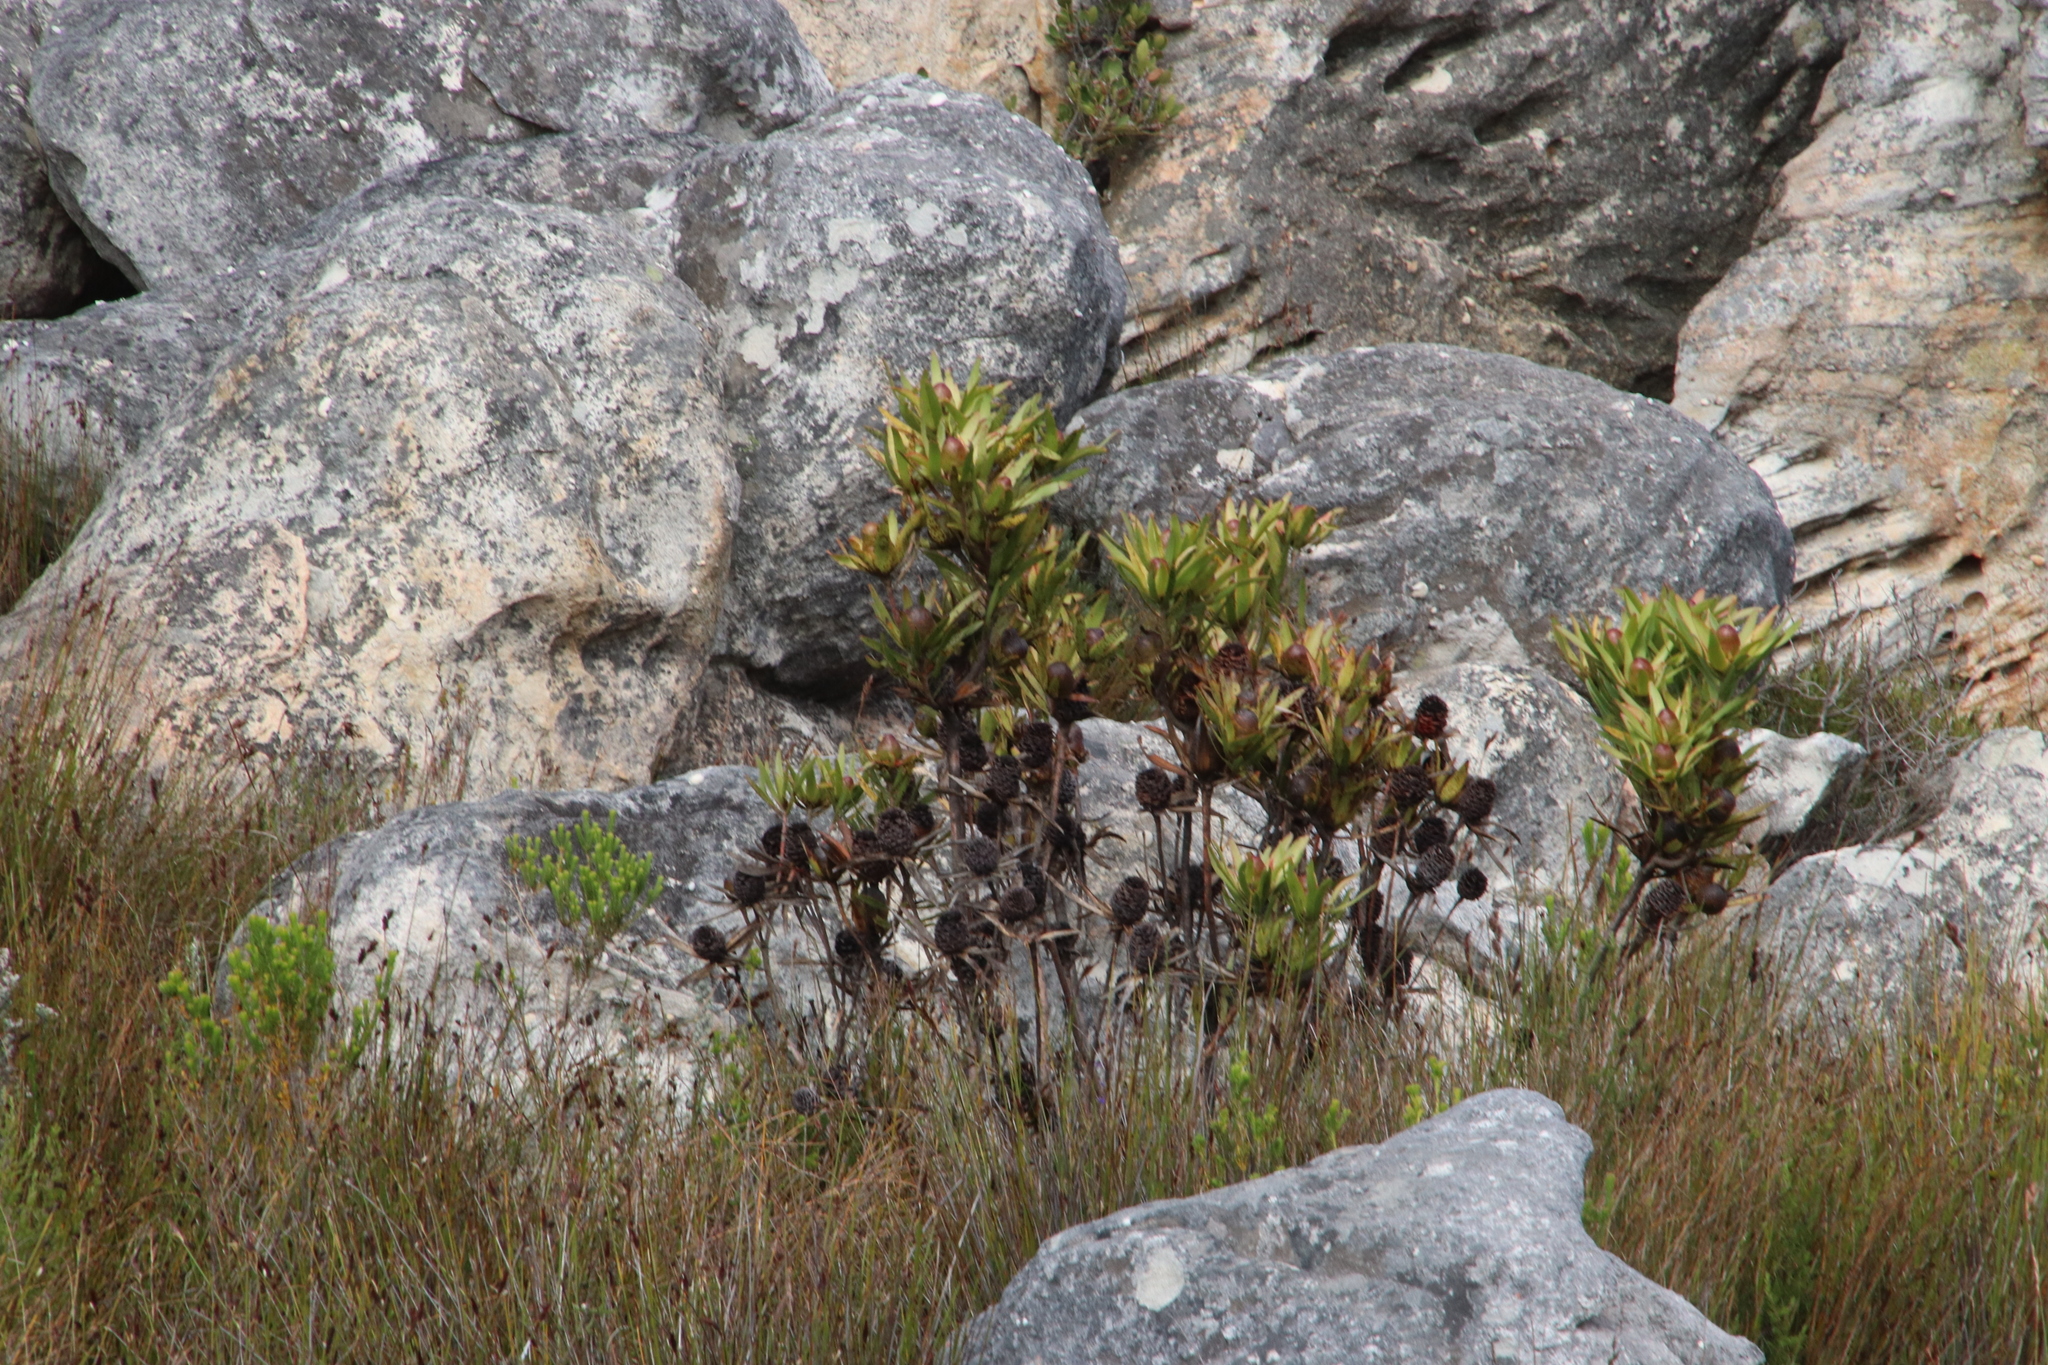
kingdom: Plantae
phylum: Tracheophyta
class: Magnoliopsida
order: Proteales
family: Proteaceae
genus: Leucadendron
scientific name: Leucadendron spissifolium
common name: Spear-leaf conebush
